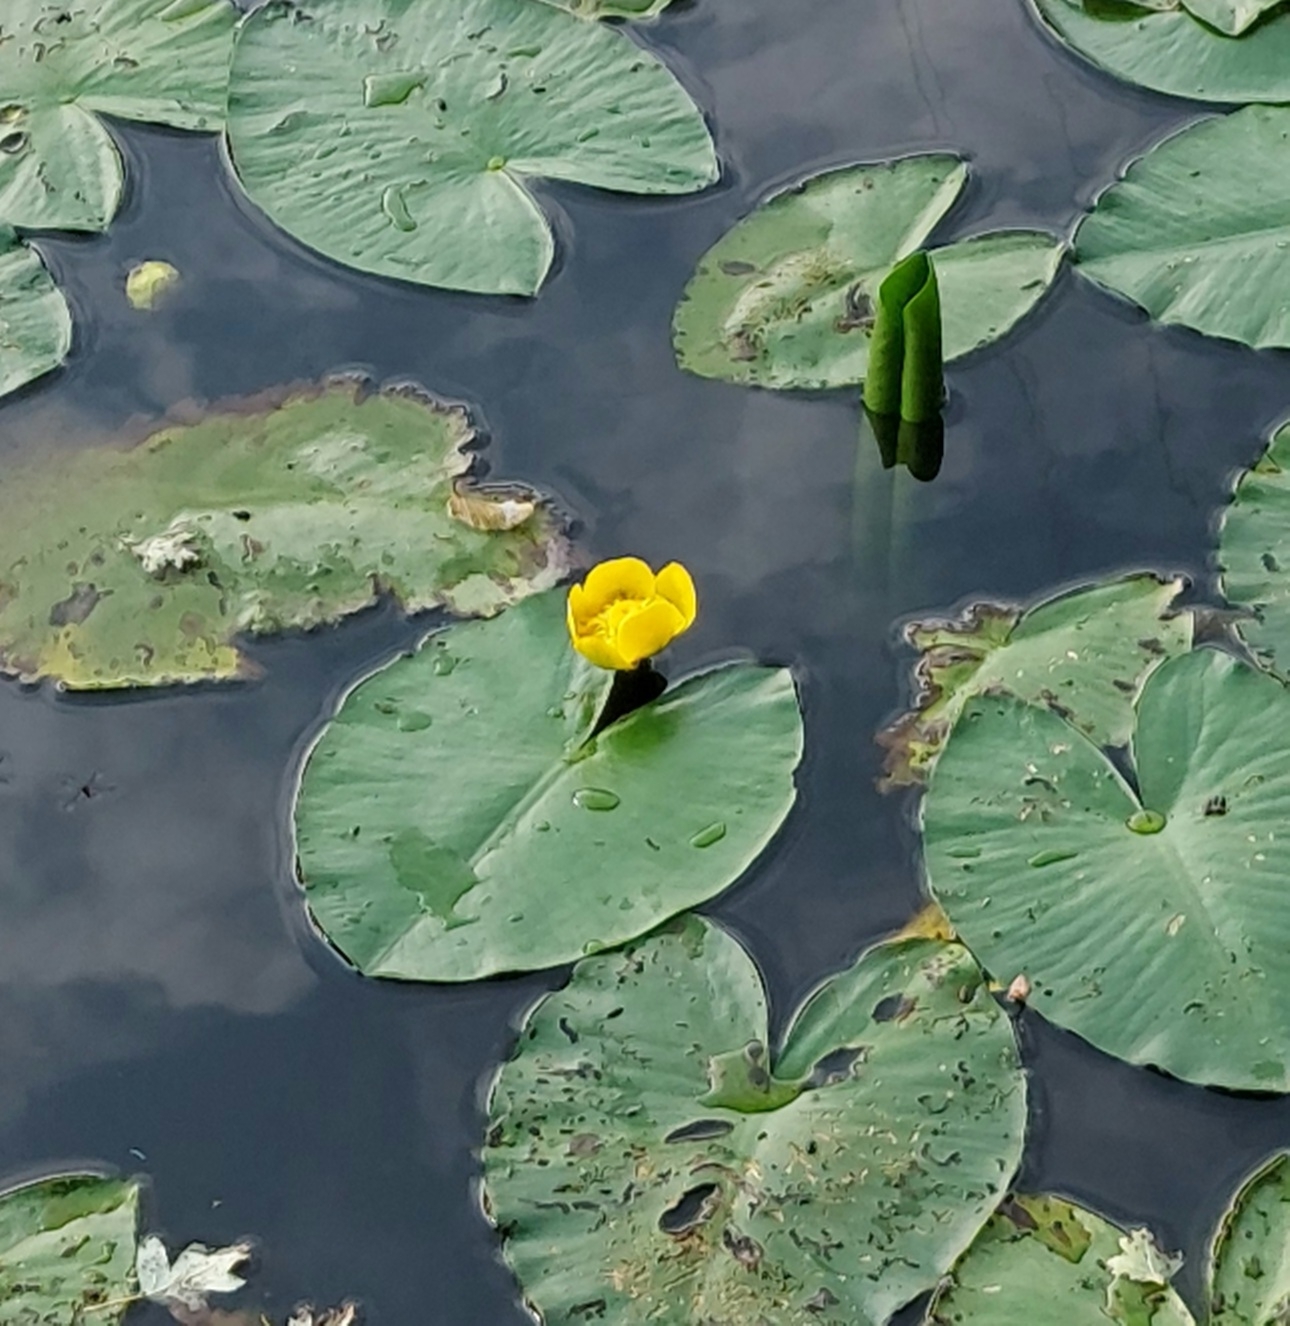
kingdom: Plantae
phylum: Tracheophyta
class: Magnoliopsida
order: Nymphaeales
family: Nymphaeaceae
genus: Nuphar
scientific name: Nuphar lutea
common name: Yellow water-lily
